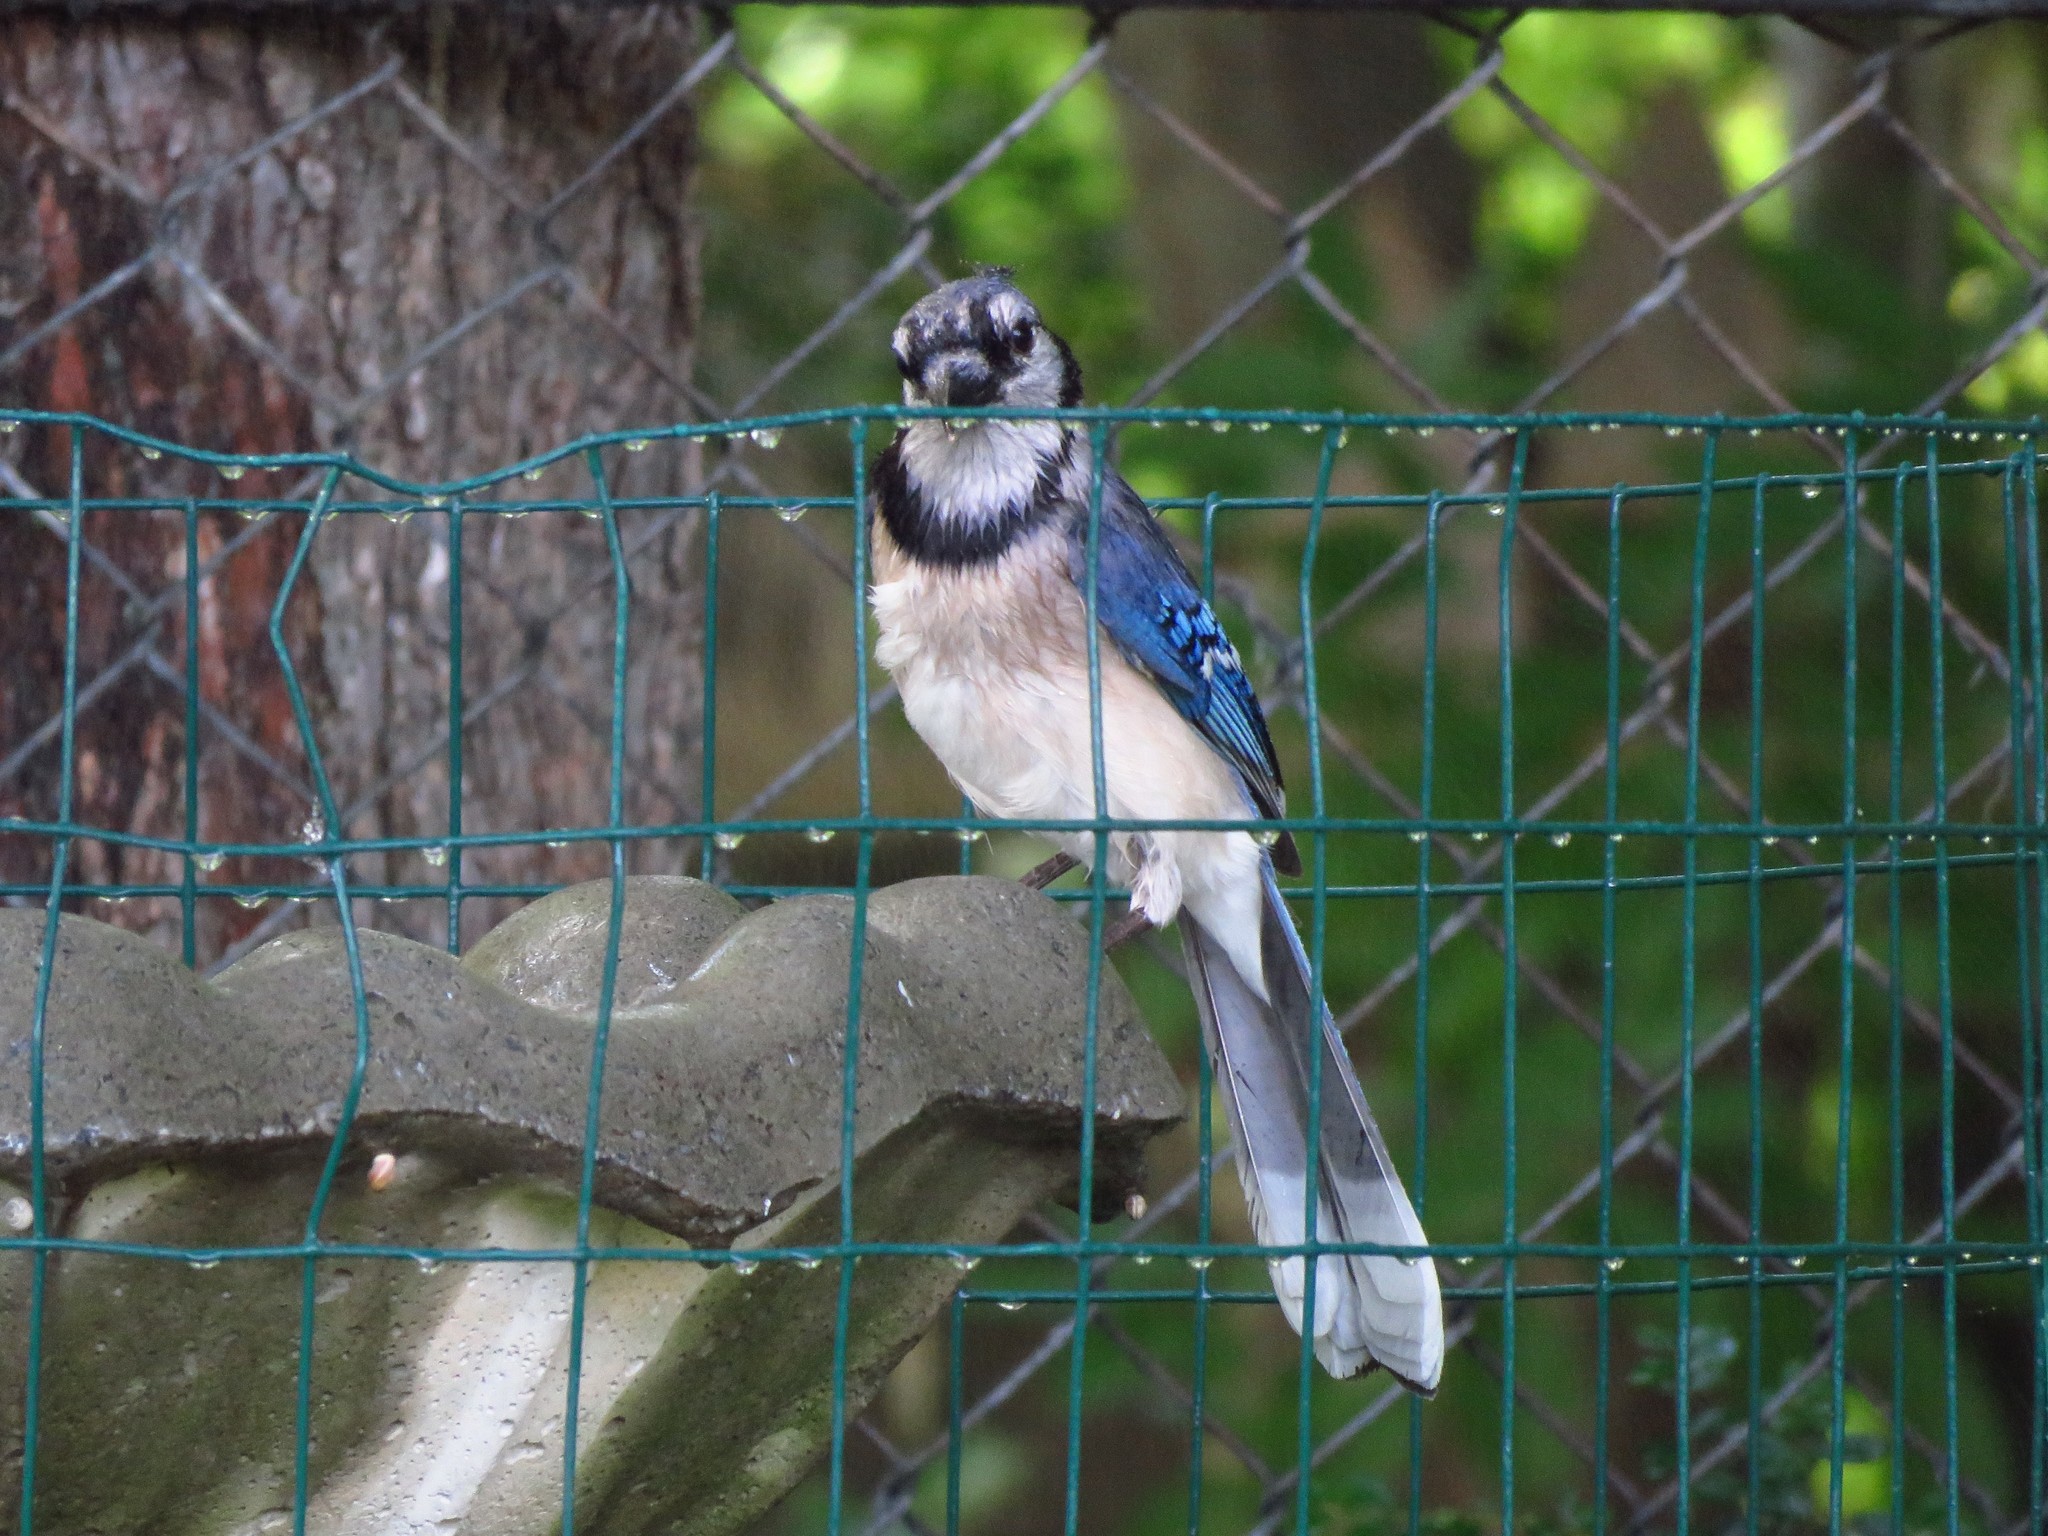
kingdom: Animalia
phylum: Chordata
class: Aves
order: Passeriformes
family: Corvidae
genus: Cyanocitta
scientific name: Cyanocitta cristata
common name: Blue jay
